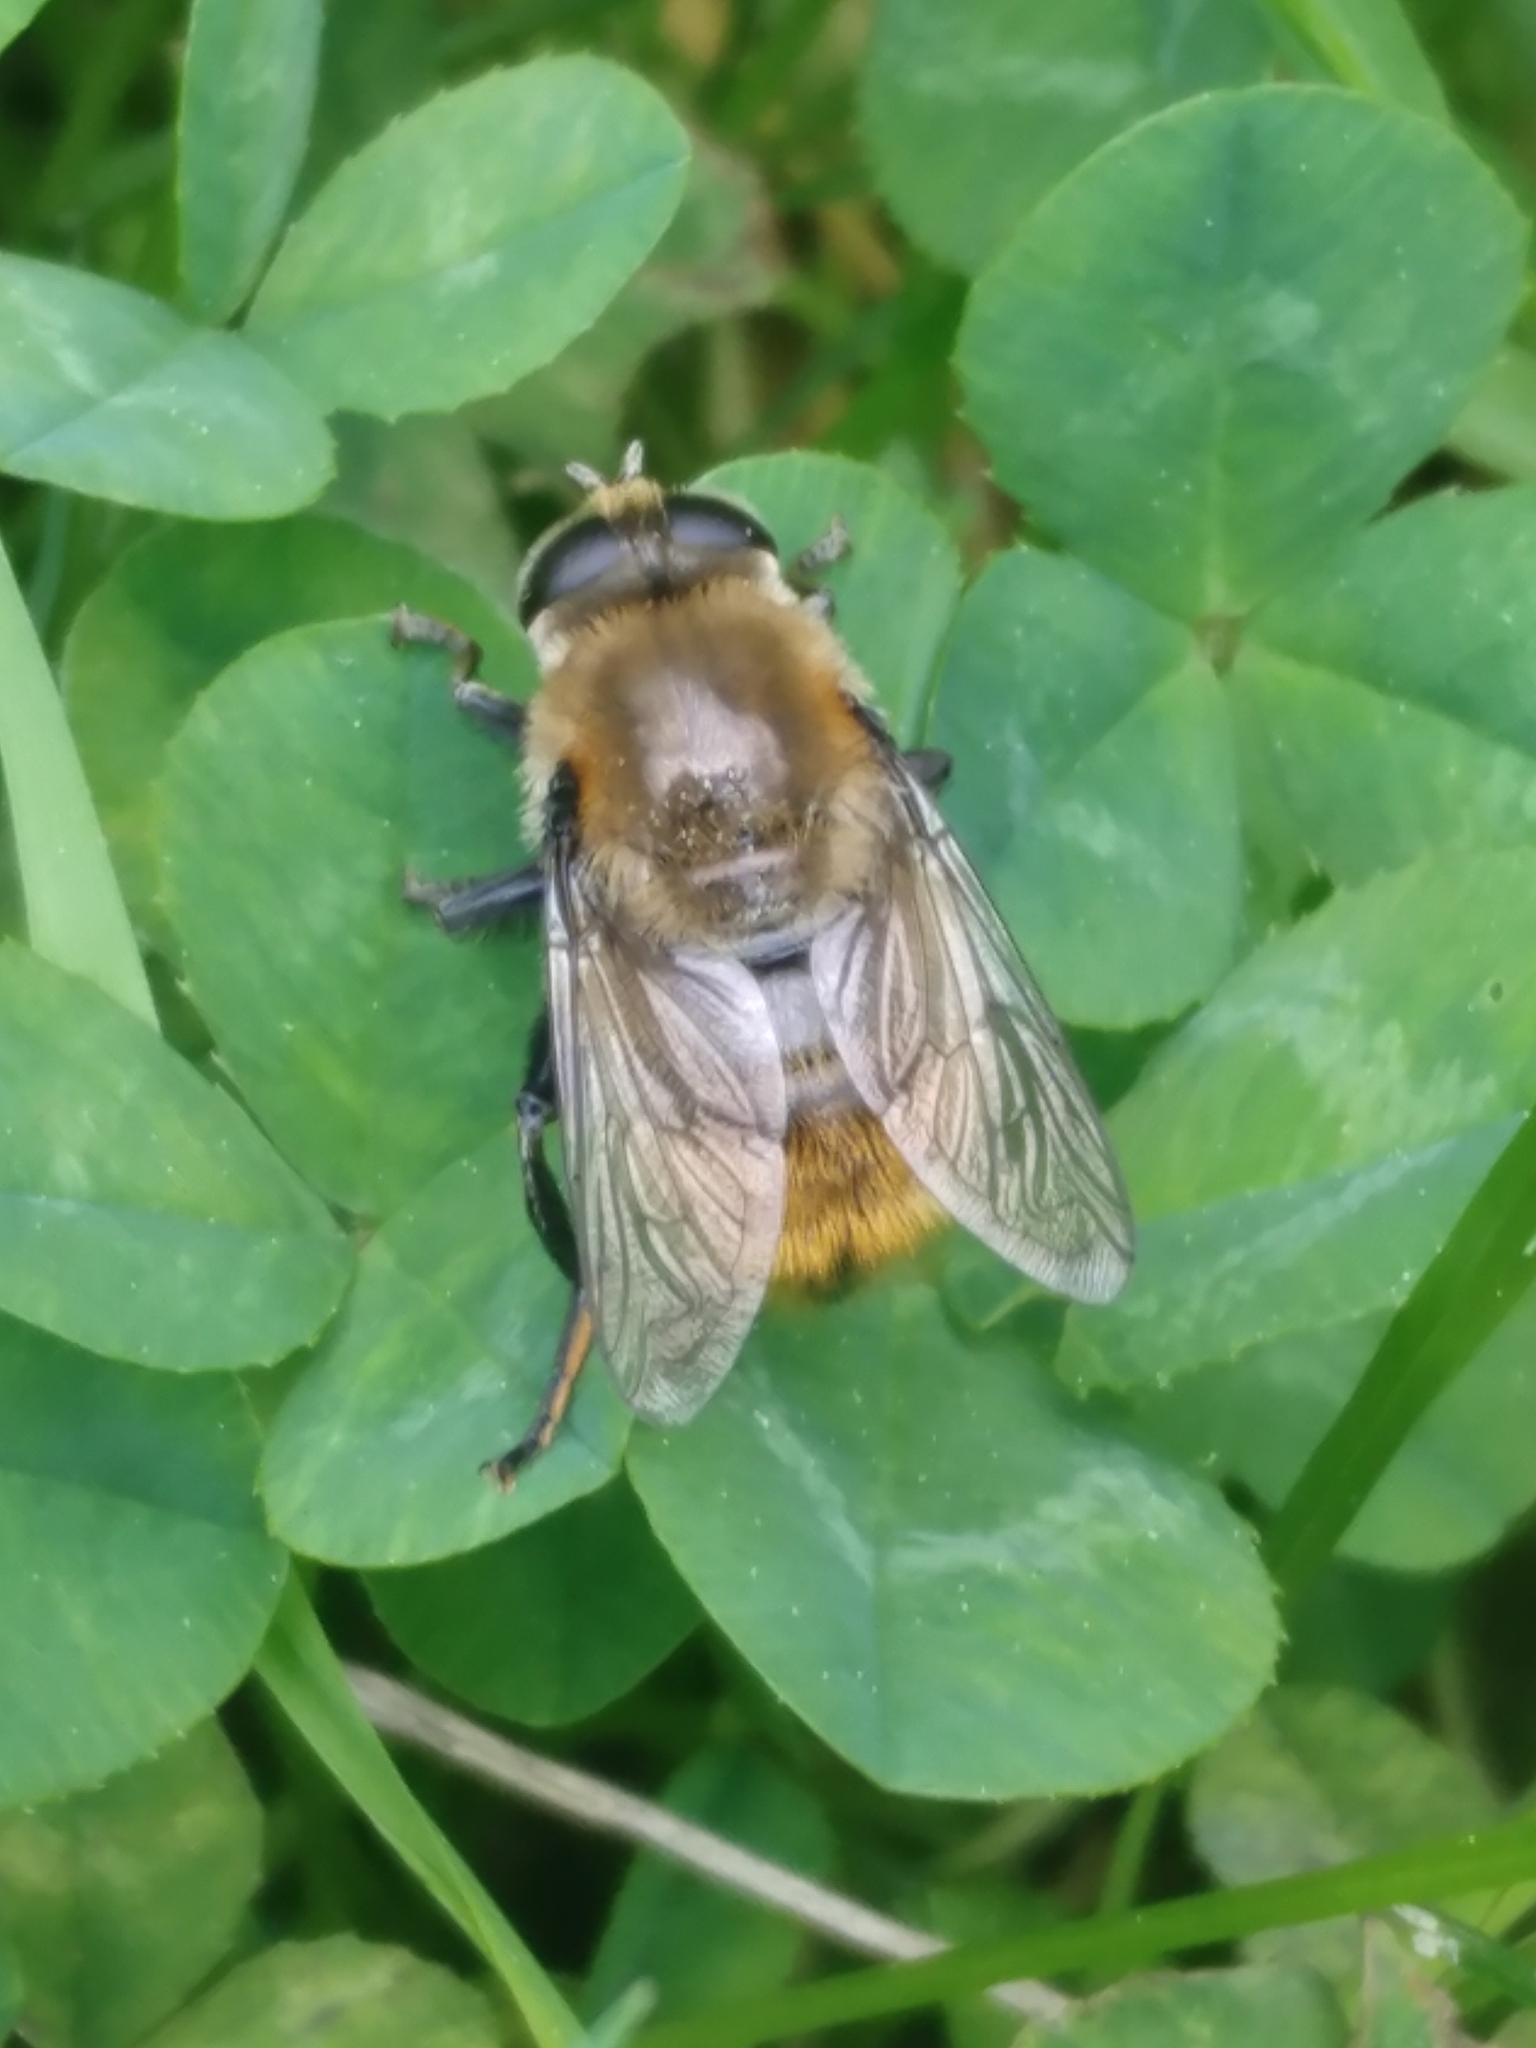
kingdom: Animalia
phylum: Arthropoda
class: Insecta
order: Diptera
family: Syrphidae
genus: Merodon
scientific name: Merodon equestris
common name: Greater bulb-fly
